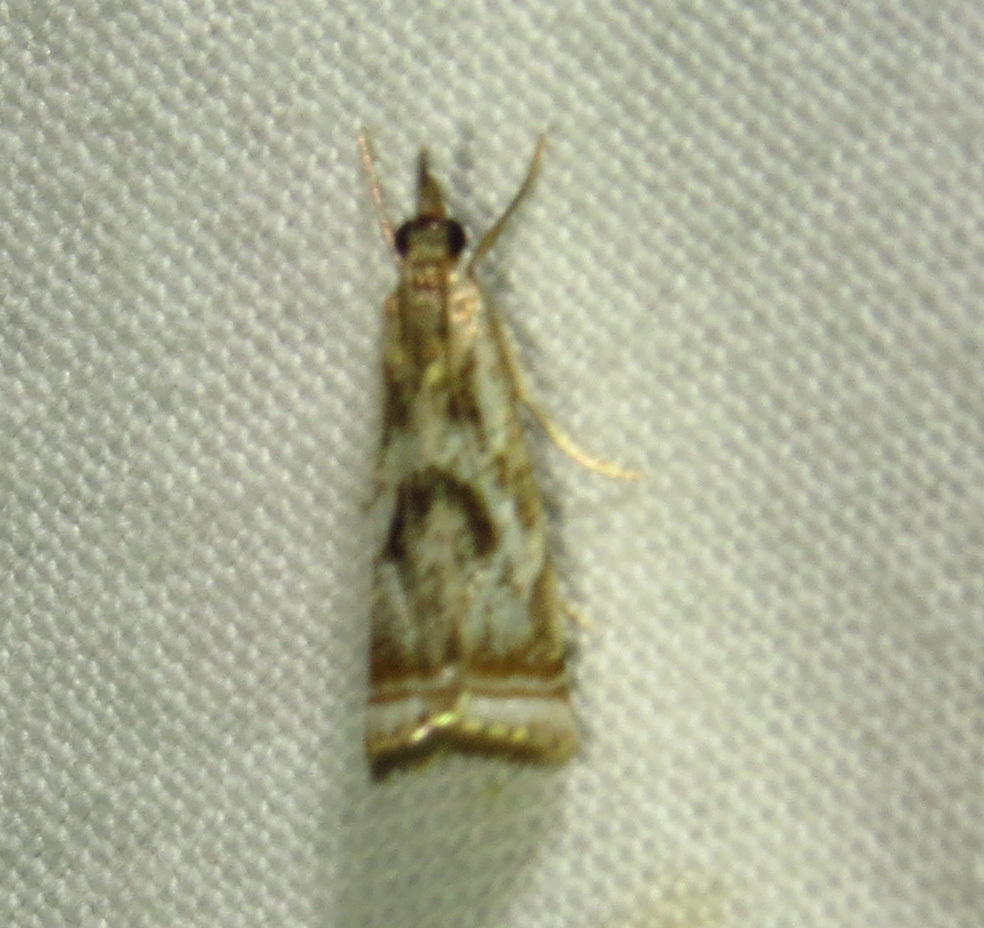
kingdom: Animalia
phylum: Arthropoda
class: Insecta
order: Lepidoptera
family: Crambidae
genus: Microcrambus
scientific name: Microcrambus elegans
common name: Elegant grass-veneer
